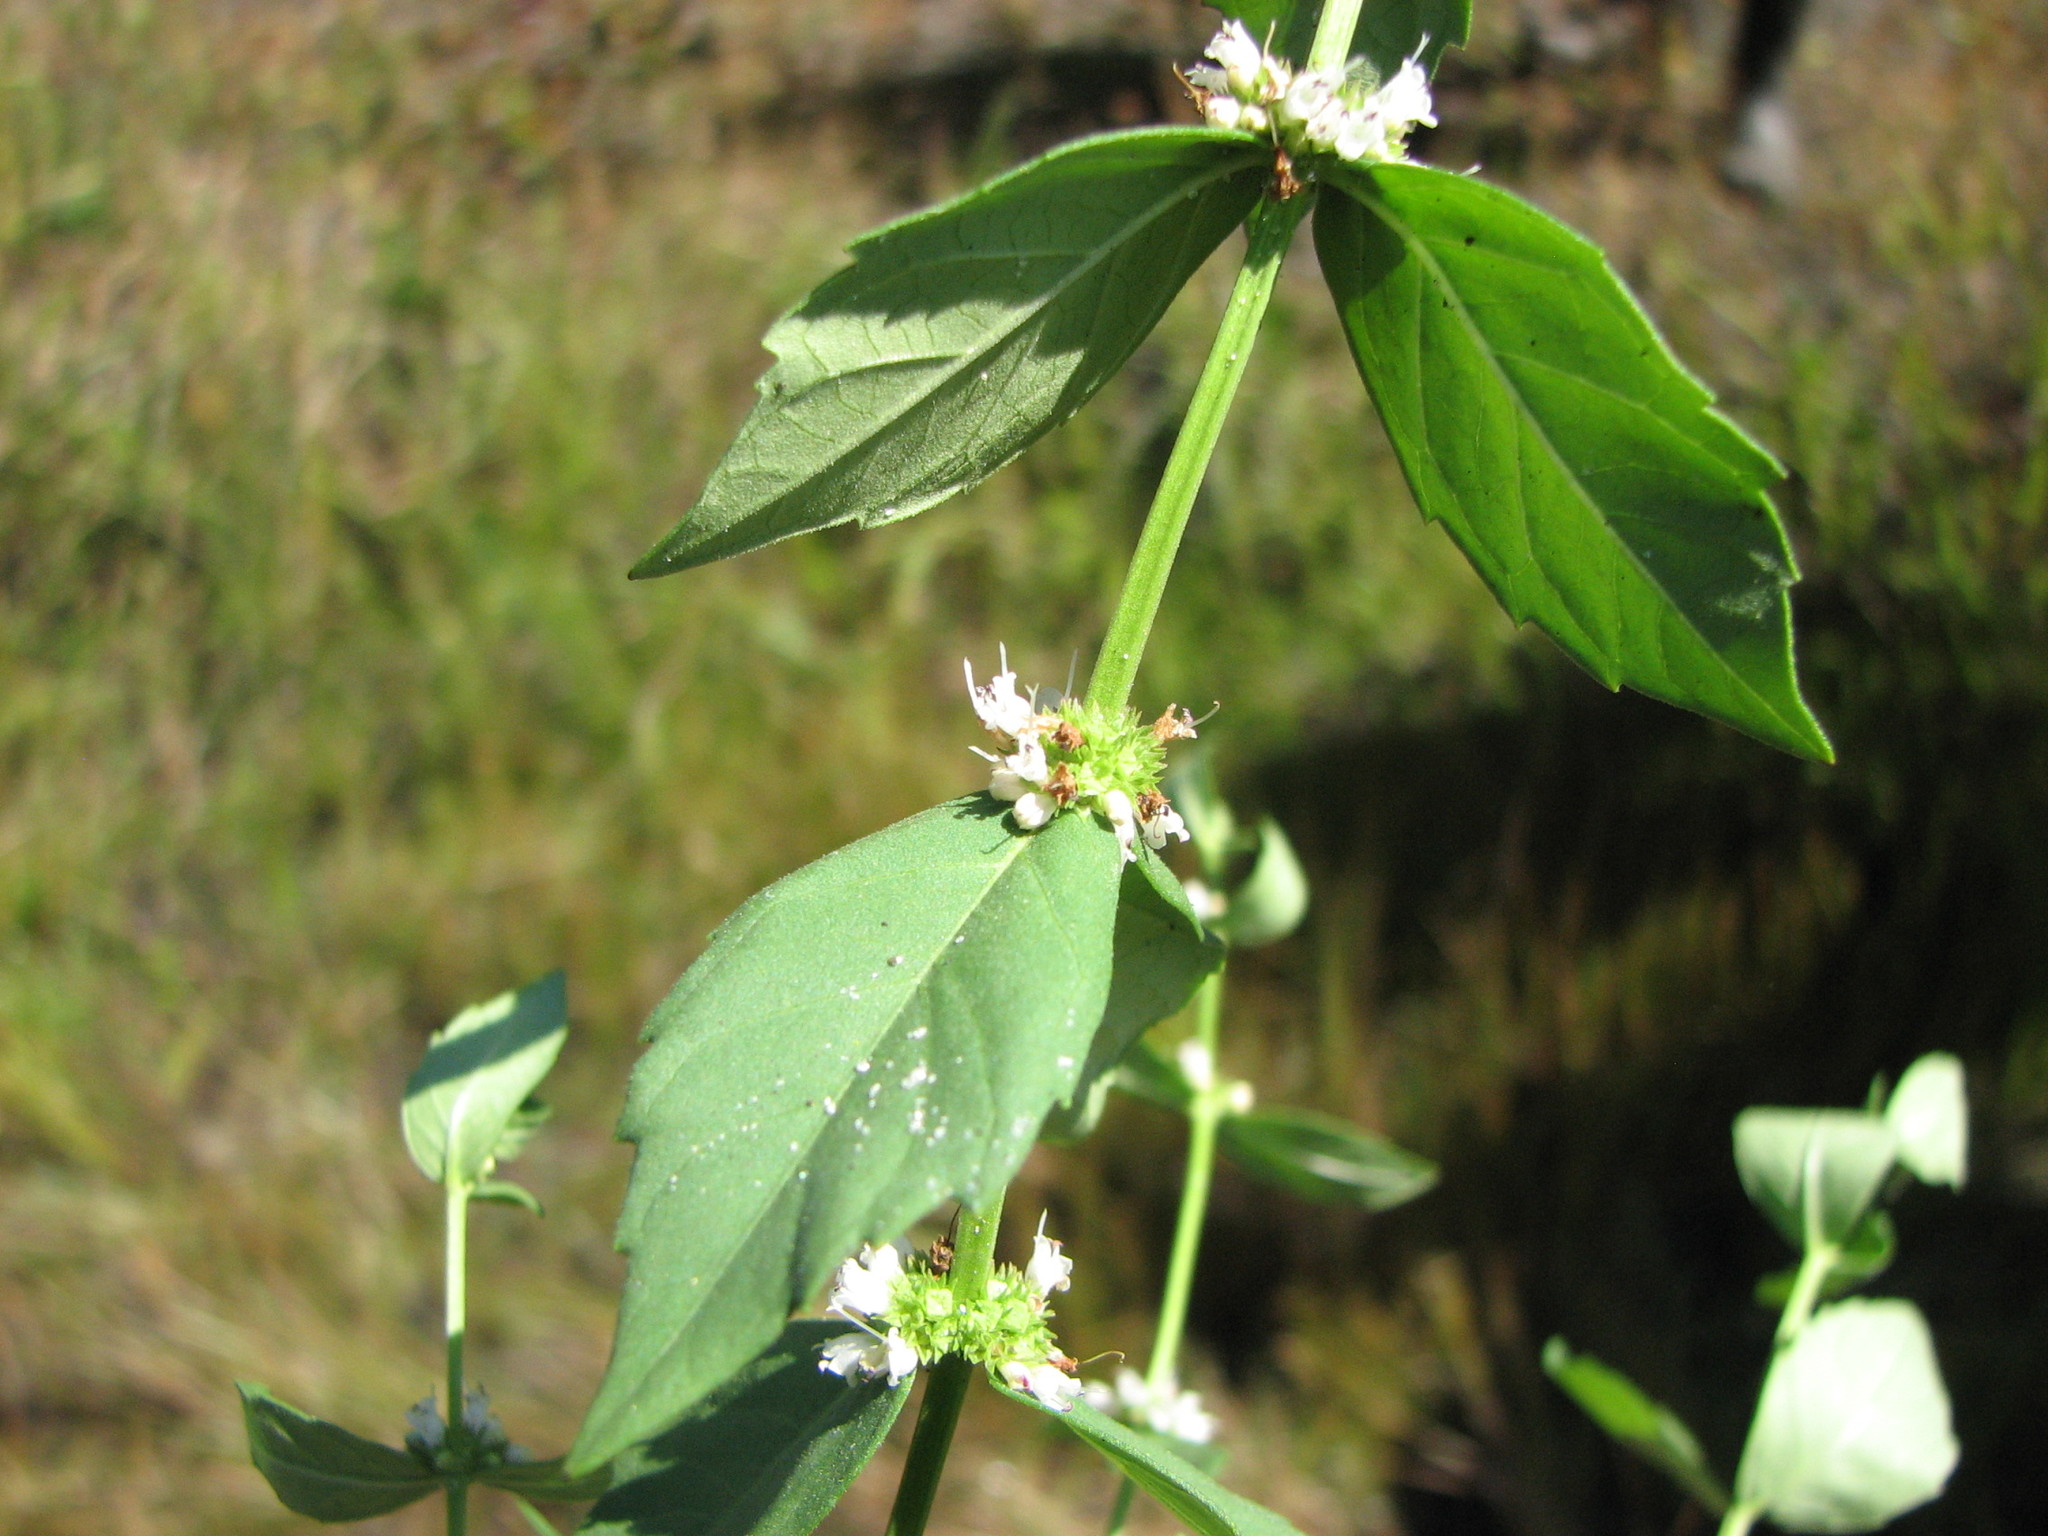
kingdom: Plantae
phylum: Tracheophyta
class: Magnoliopsida
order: Lamiales
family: Lamiaceae
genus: Lycopus
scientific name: Lycopus amplectens
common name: Clasping water horehound
